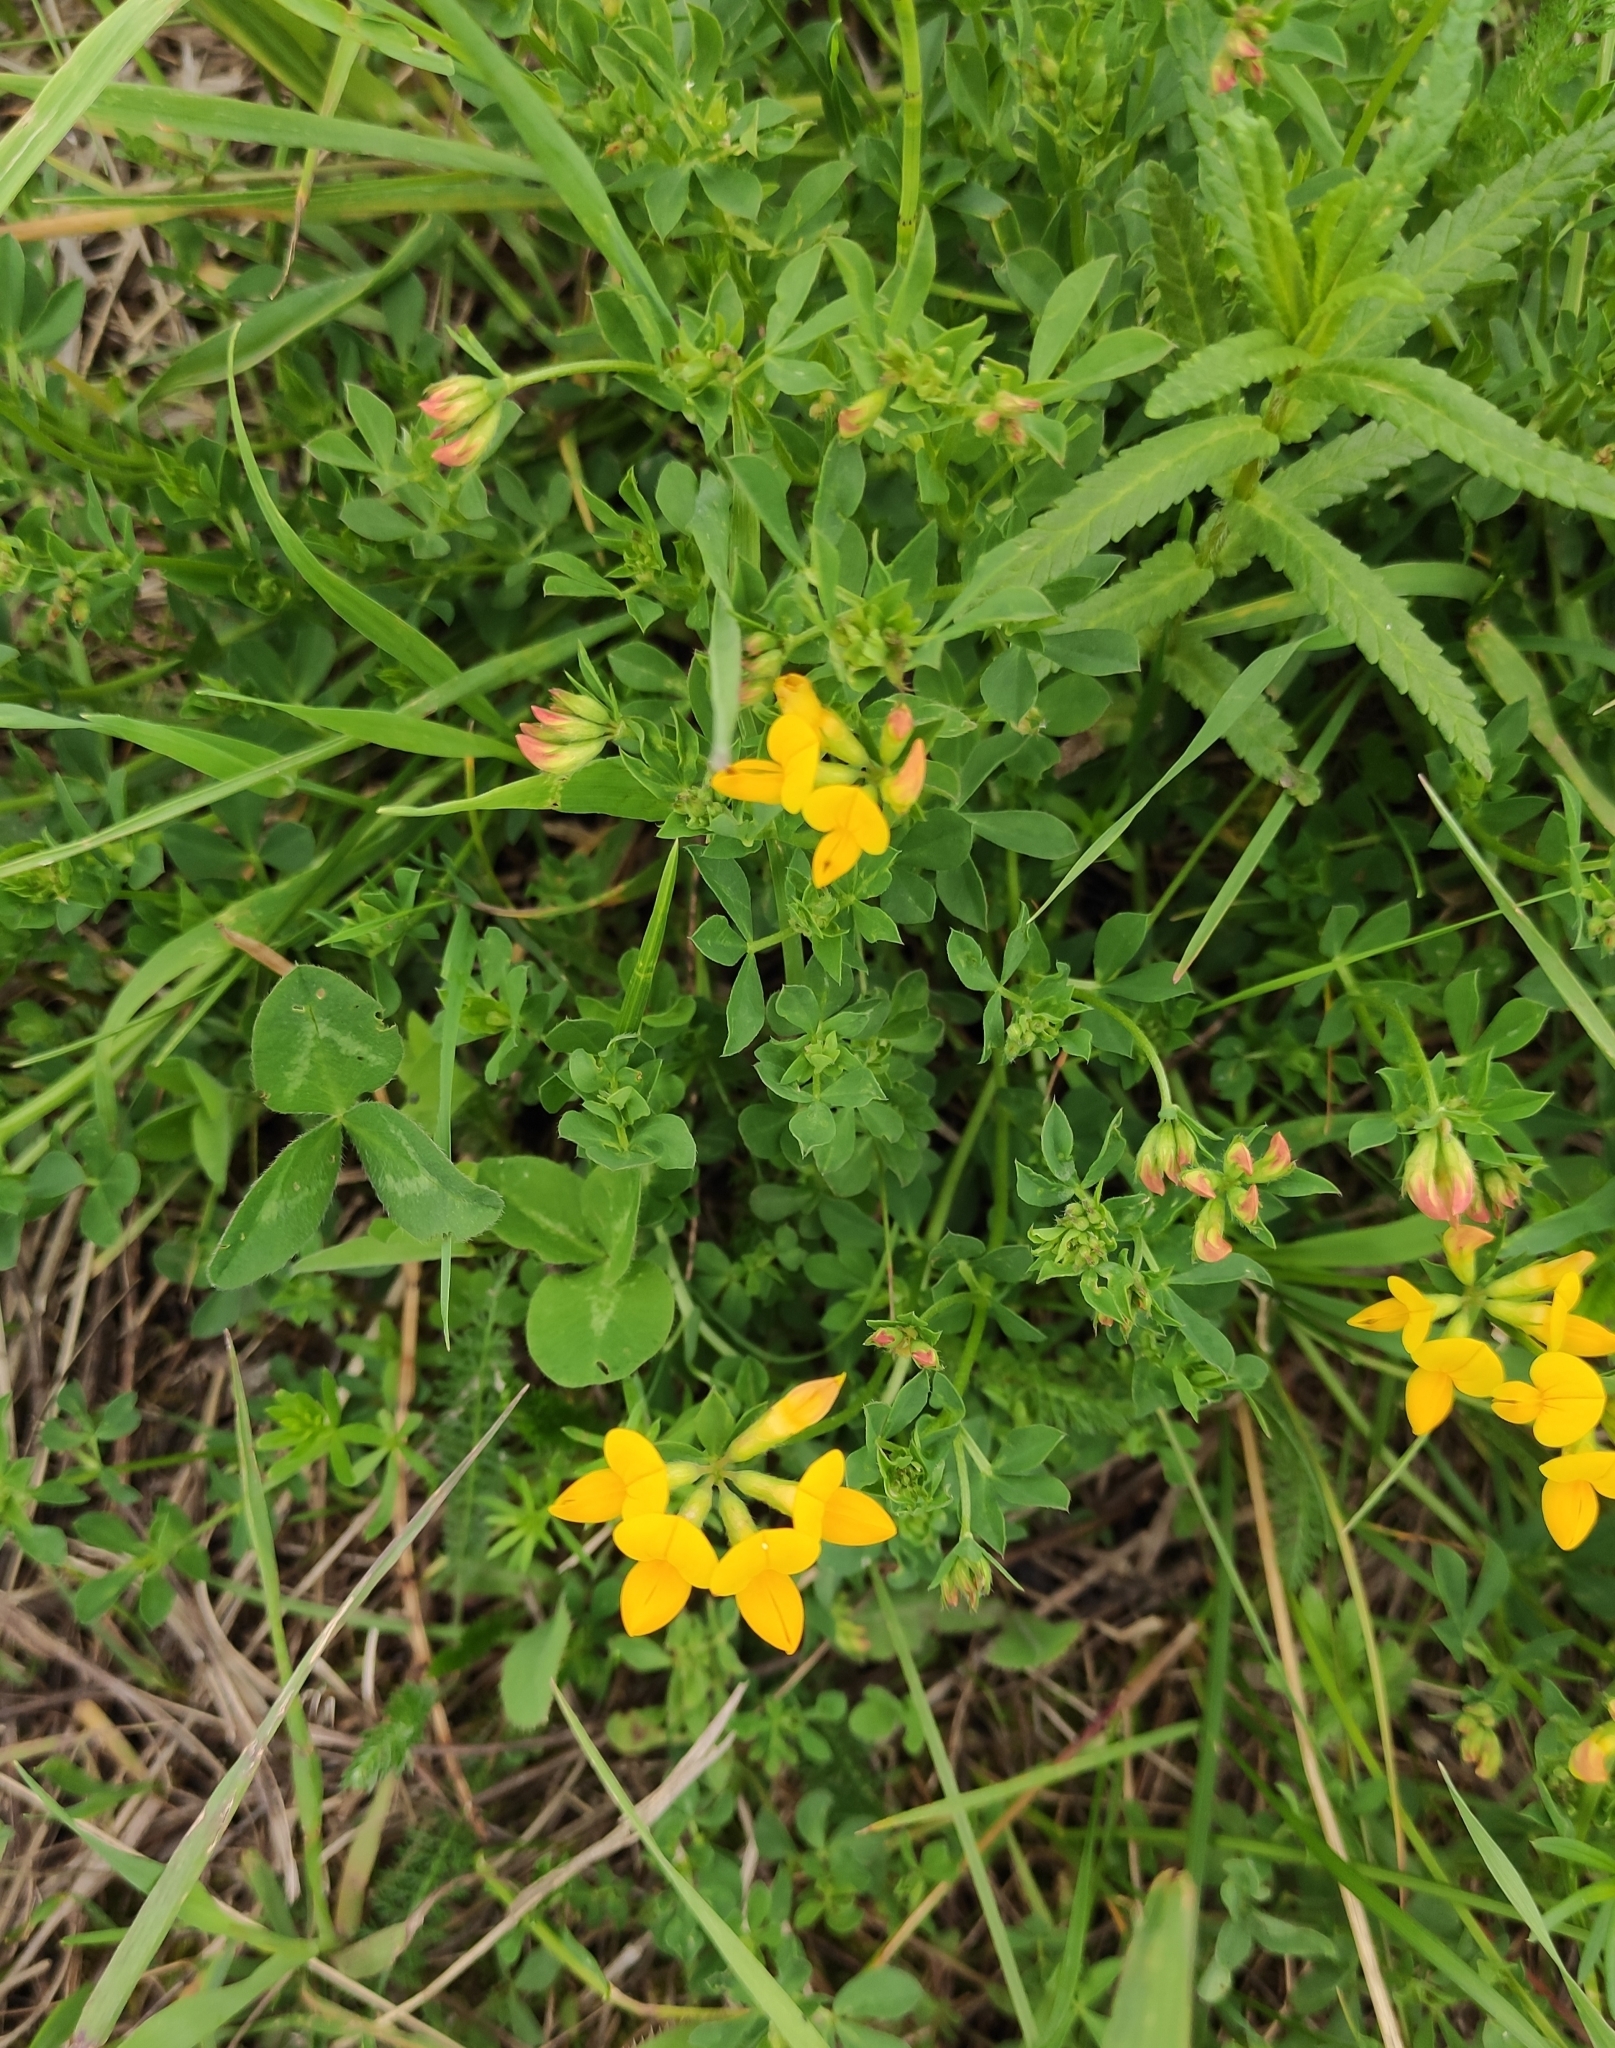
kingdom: Plantae
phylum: Tracheophyta
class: Magnoliopsida
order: Fabales
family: Fabaceae
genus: Lotus
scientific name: Lotus corniculatus
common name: Common bird's-foot-trefoil
